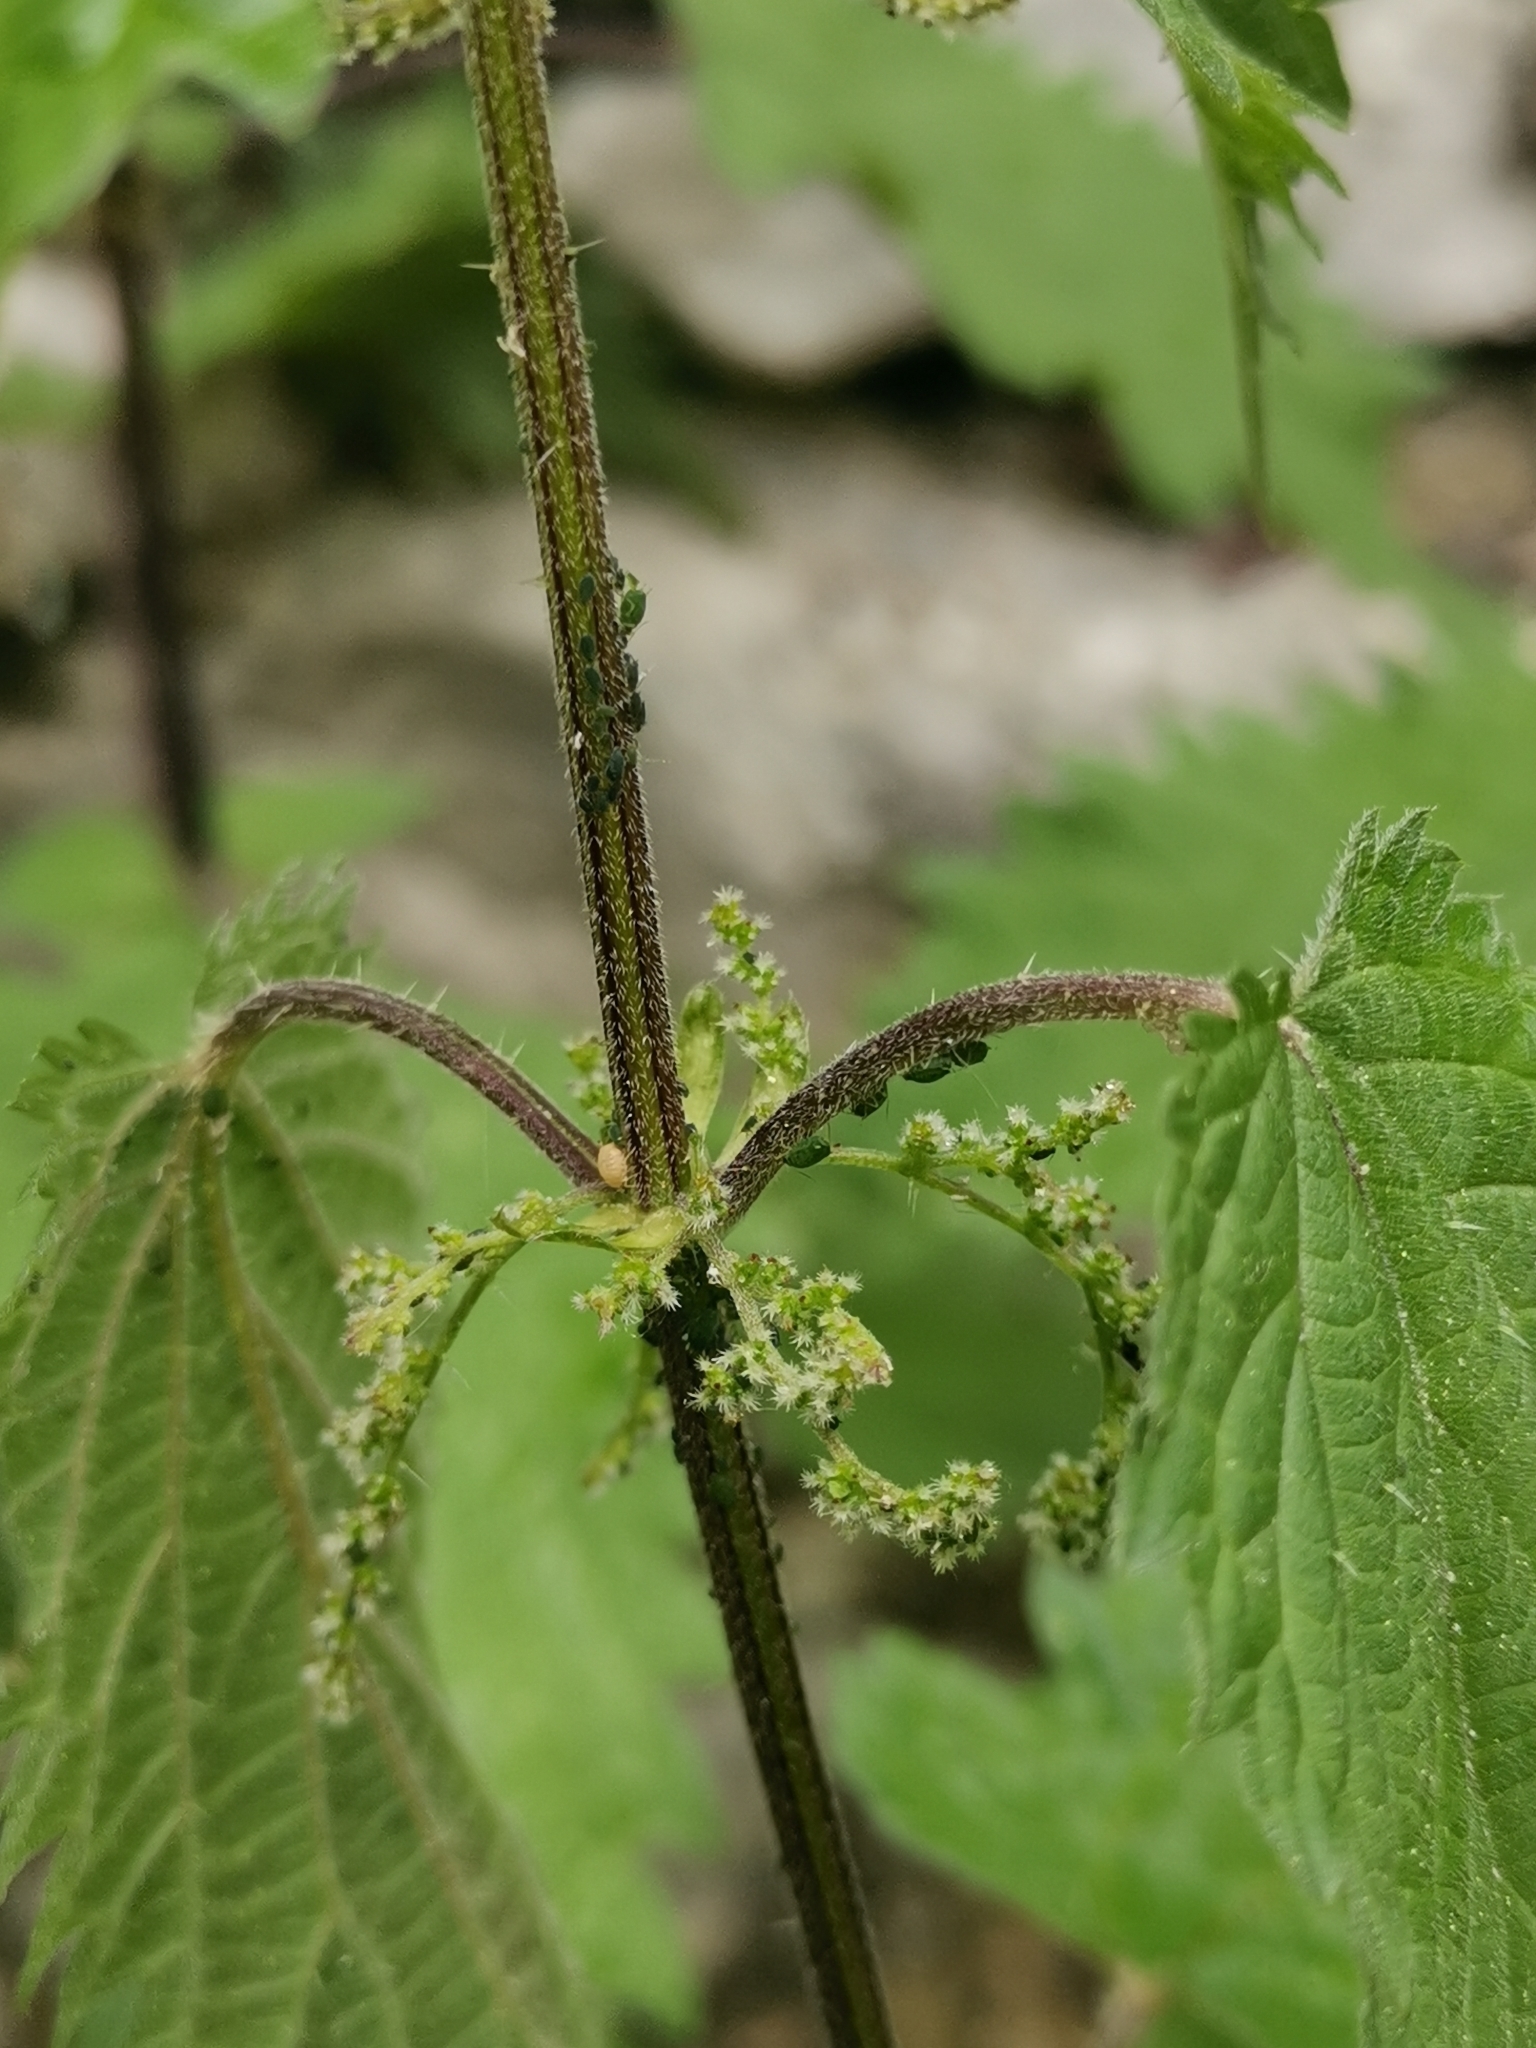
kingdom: Plantae
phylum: Tracheophyta
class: Magnoliopsida
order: Rosales
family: Urticaceae
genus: Urtica
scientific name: Urtica dioica
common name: Common nettle
